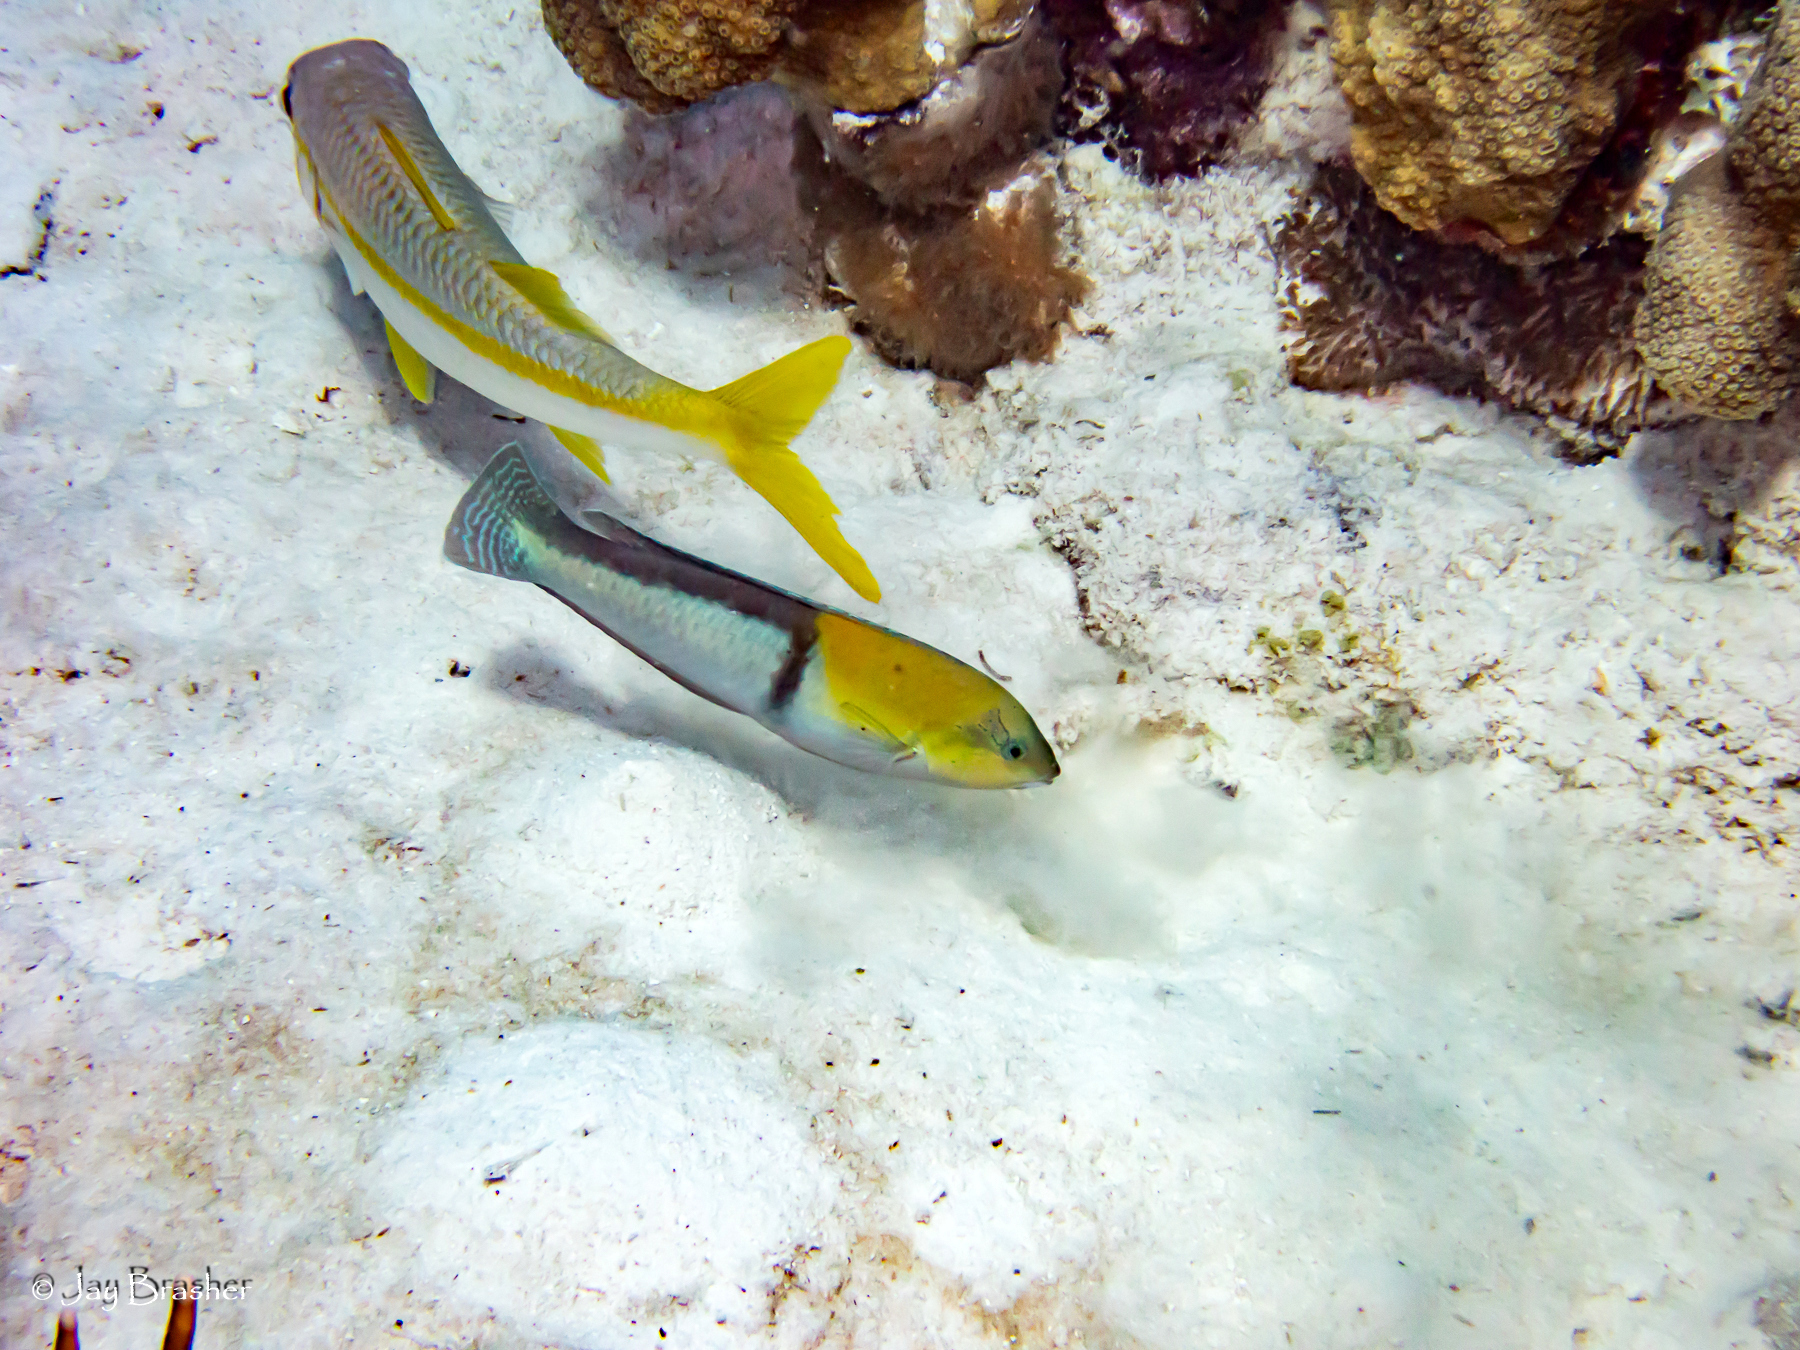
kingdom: Animalia
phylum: Chordata
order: Perciformes
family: Mullidae
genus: Mulloidichthys
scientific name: Mulloidichthys martinicus
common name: Yellow goatfish
